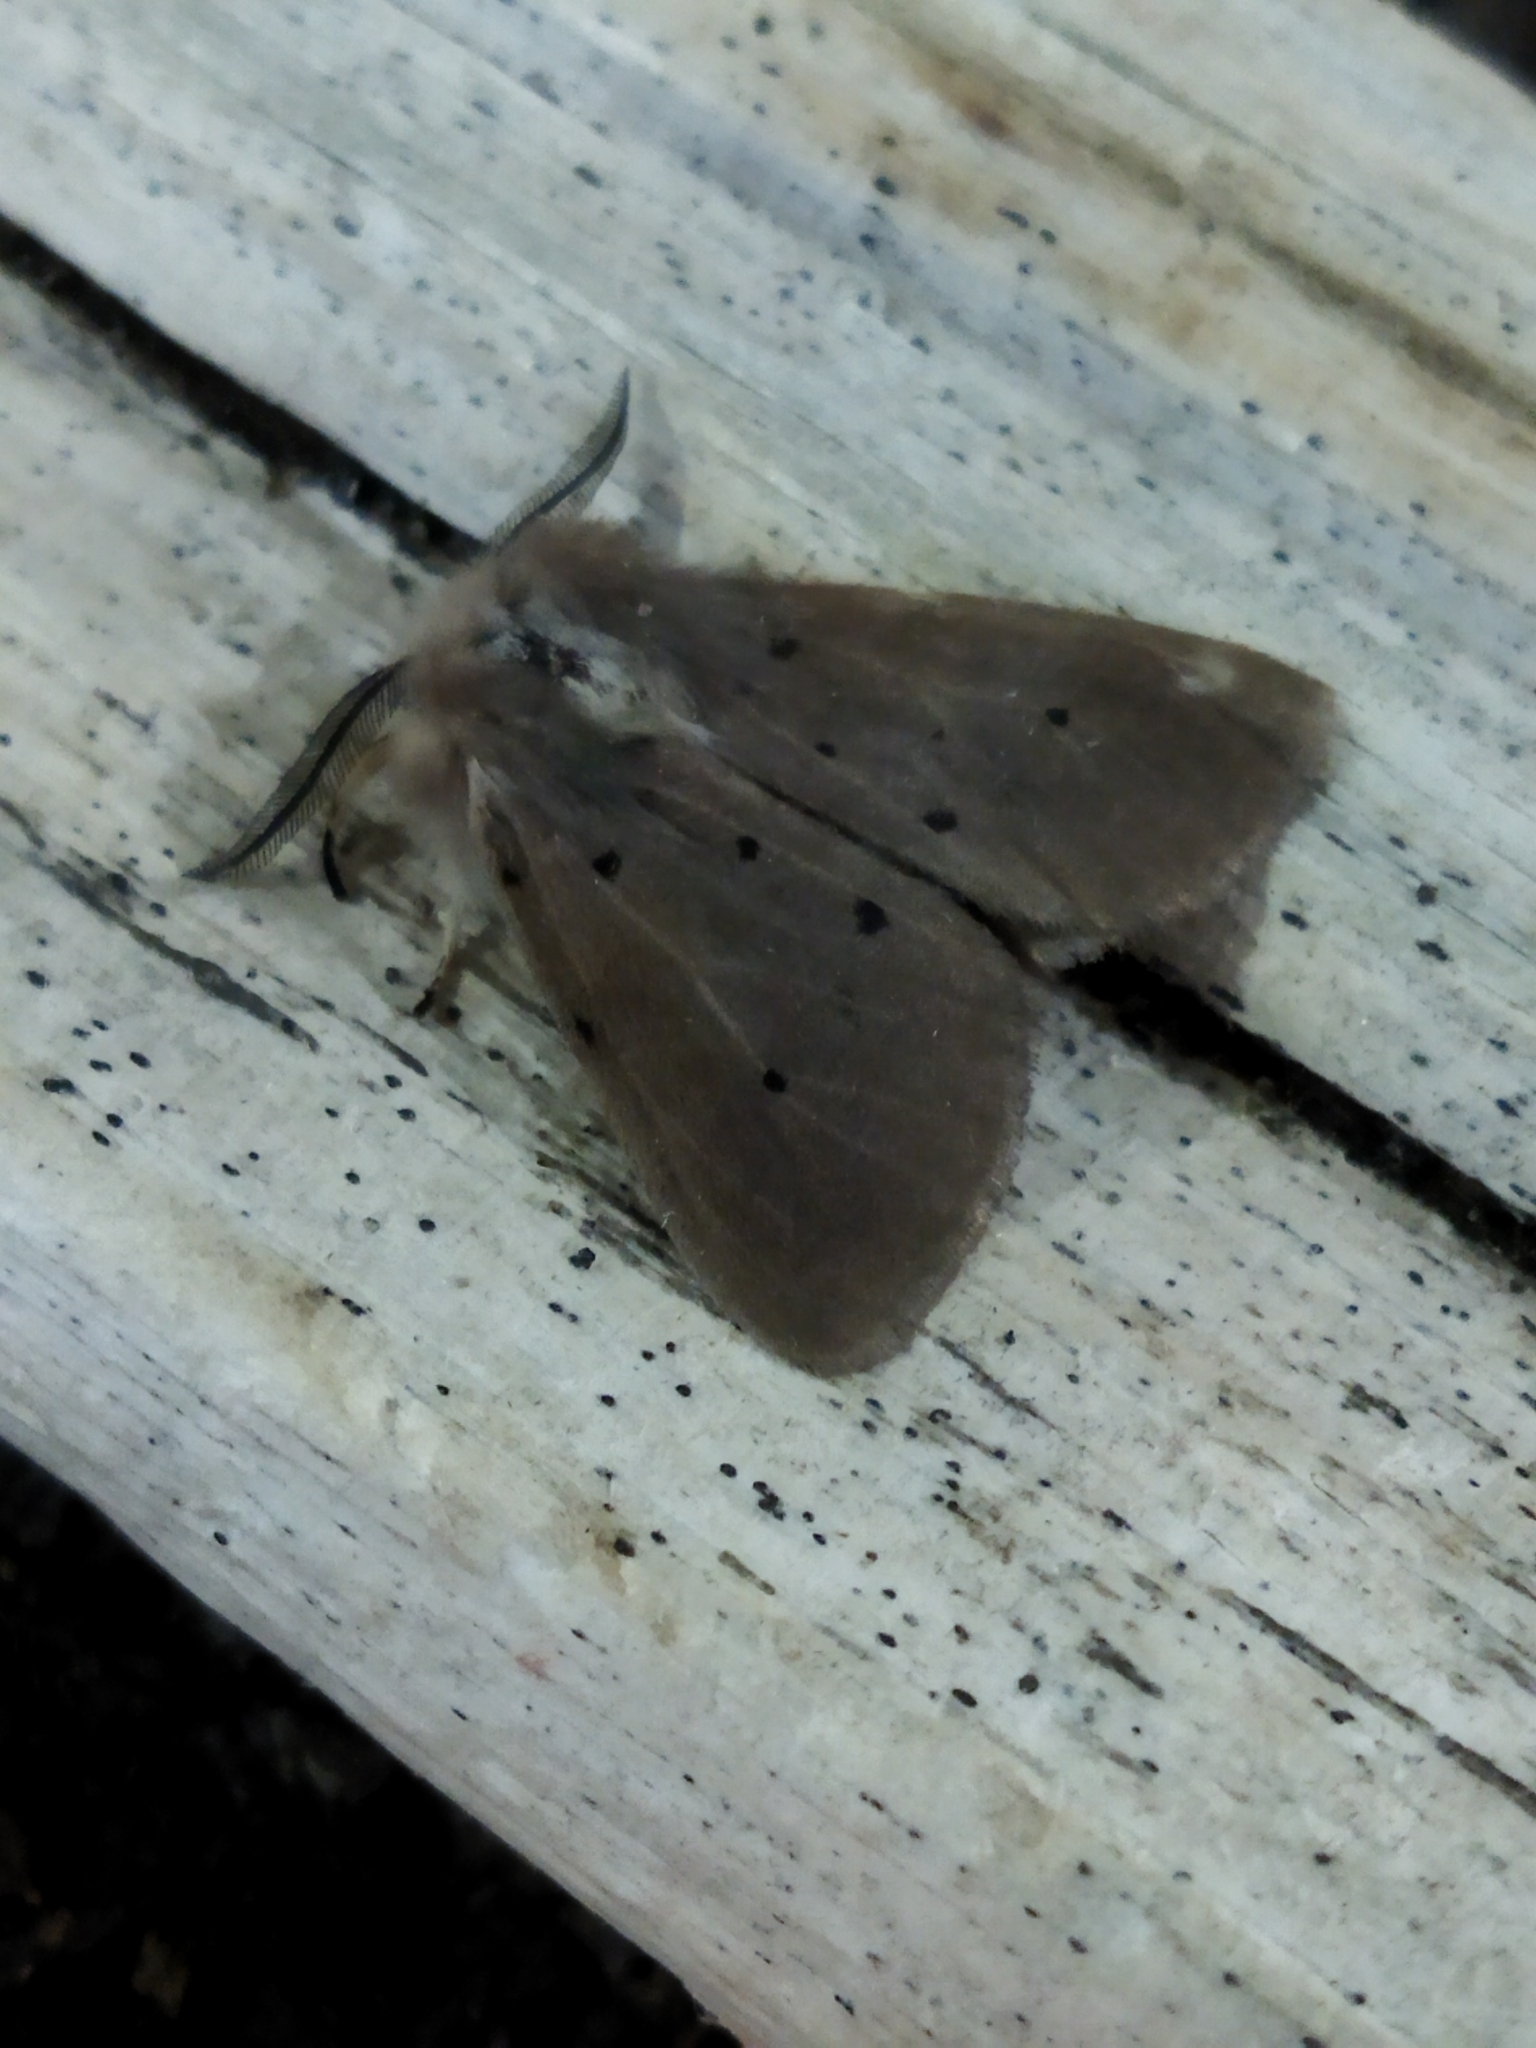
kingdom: Animalia
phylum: Arthropoda
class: Insecta
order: Lepidoptera
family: Erebidae
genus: Diaphora
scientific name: Diaphora mendica
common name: Muslin moth
